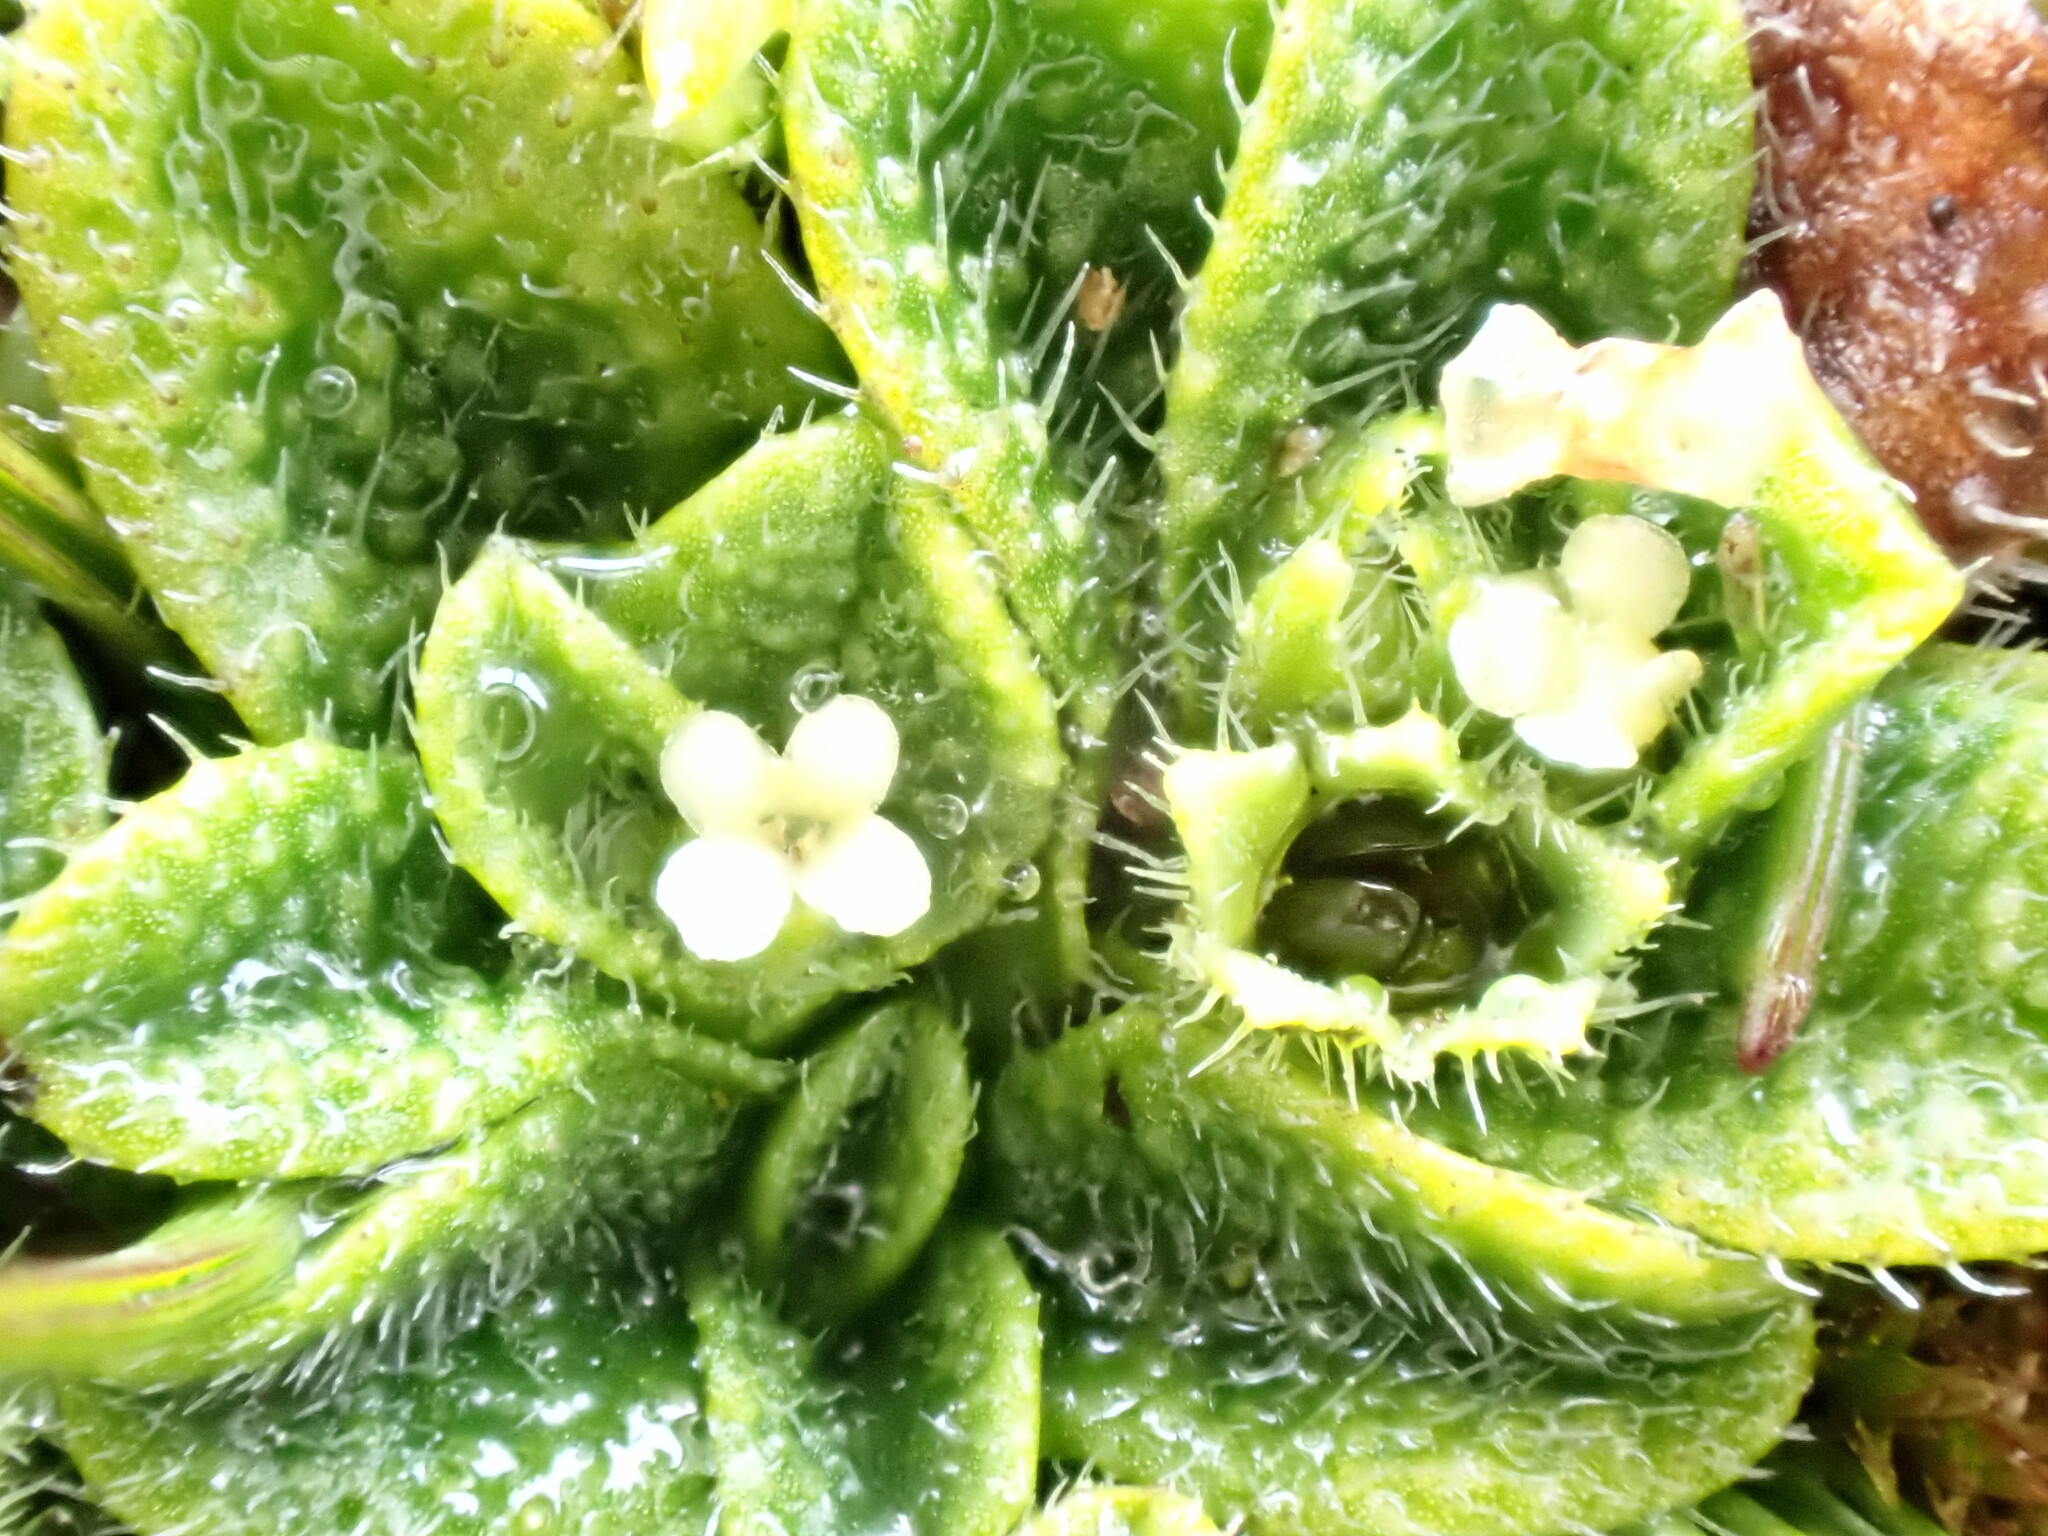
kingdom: Plantae
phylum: Tracheophyta
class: Magnoliopsida
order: Boraginales
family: Boraginaceae
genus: Myosotis
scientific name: Myosotis brevis
